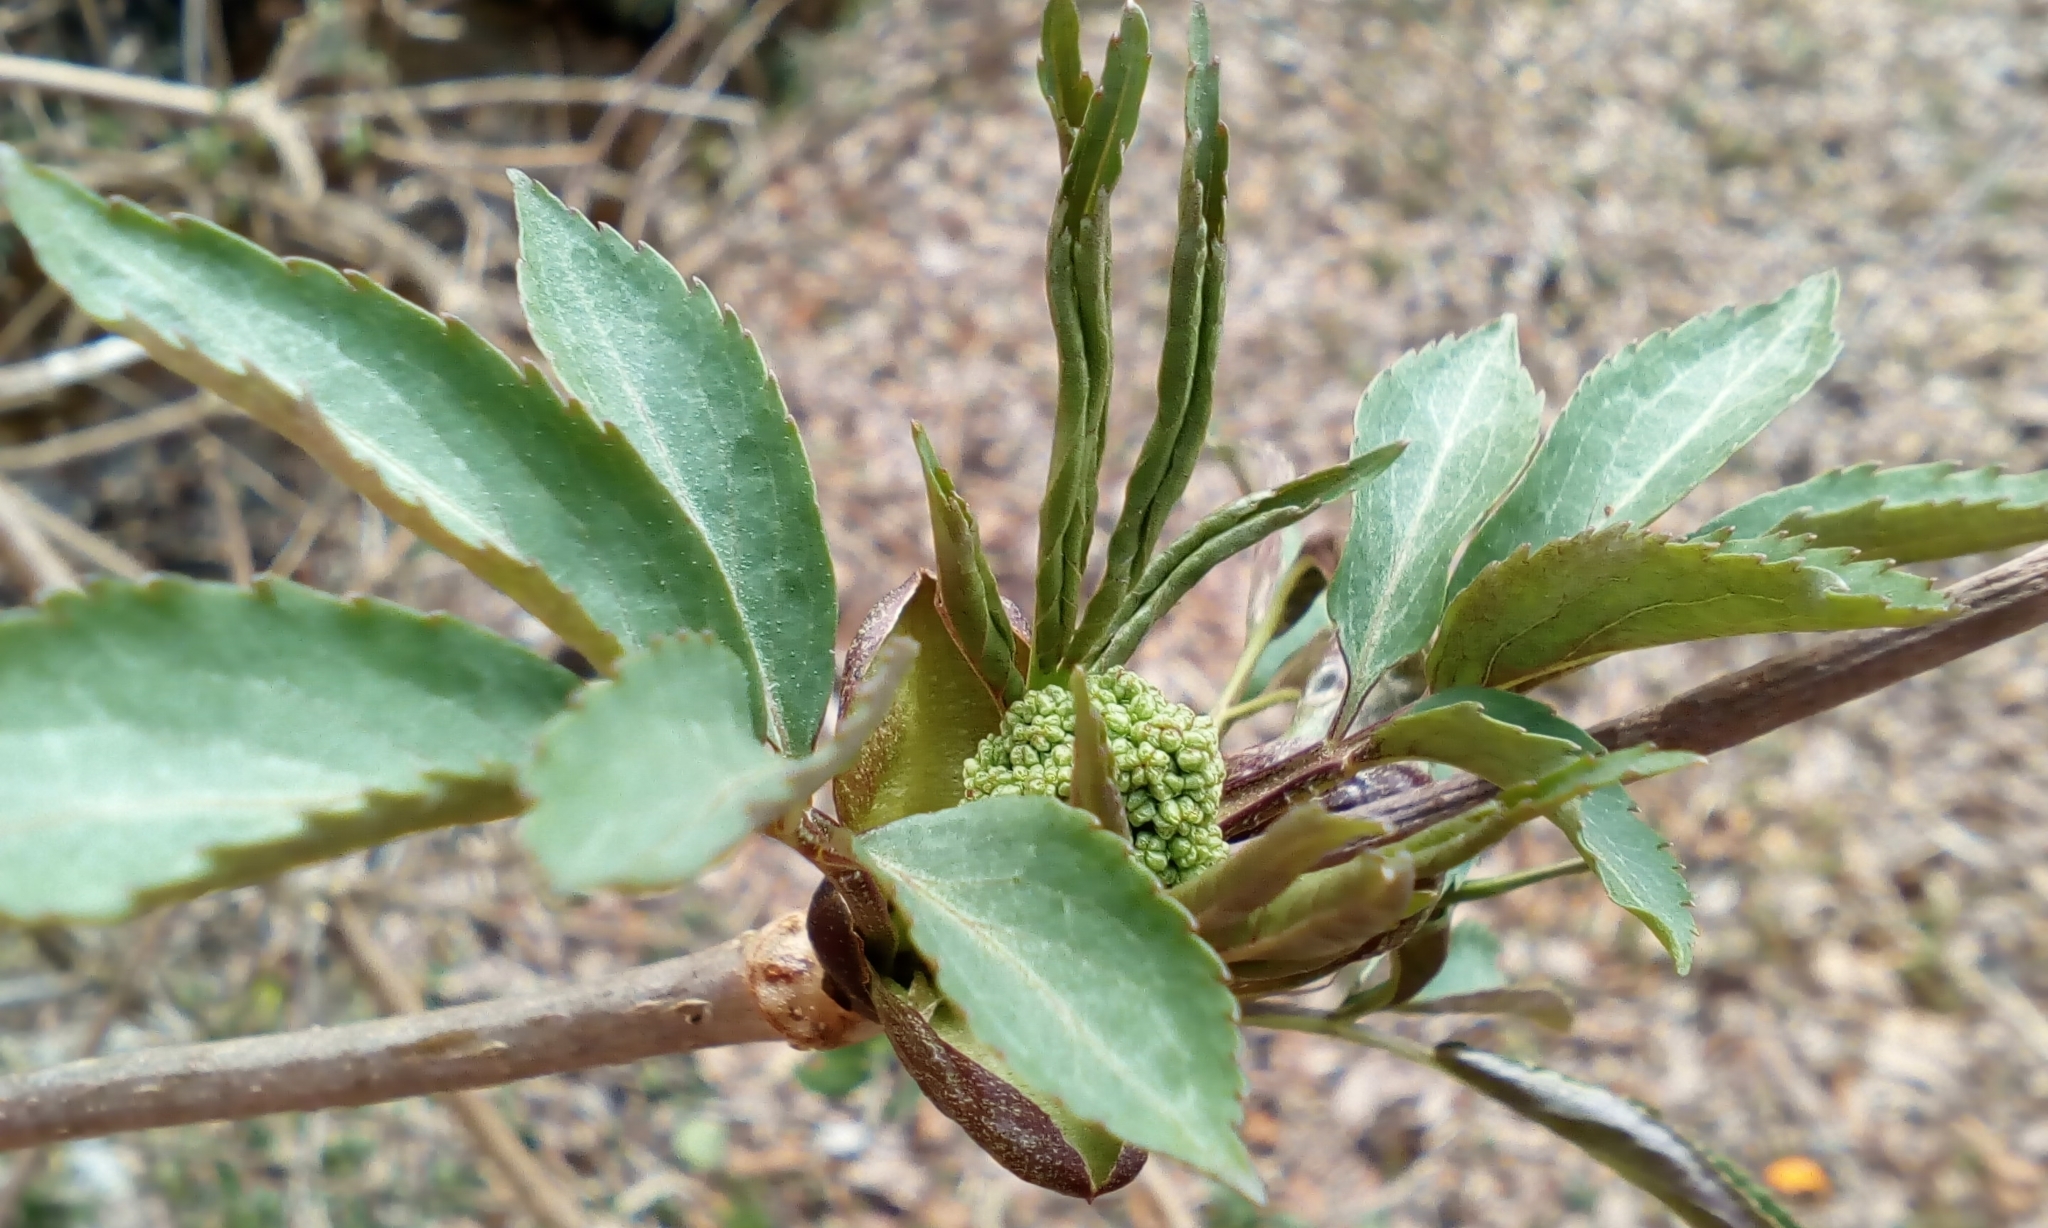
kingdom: Plantae
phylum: Tracheophyta
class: Magnoliopsida
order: Dipsacales
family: Viburnaceae
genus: Sambucus
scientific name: Sambucus williamsii
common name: William's elder
